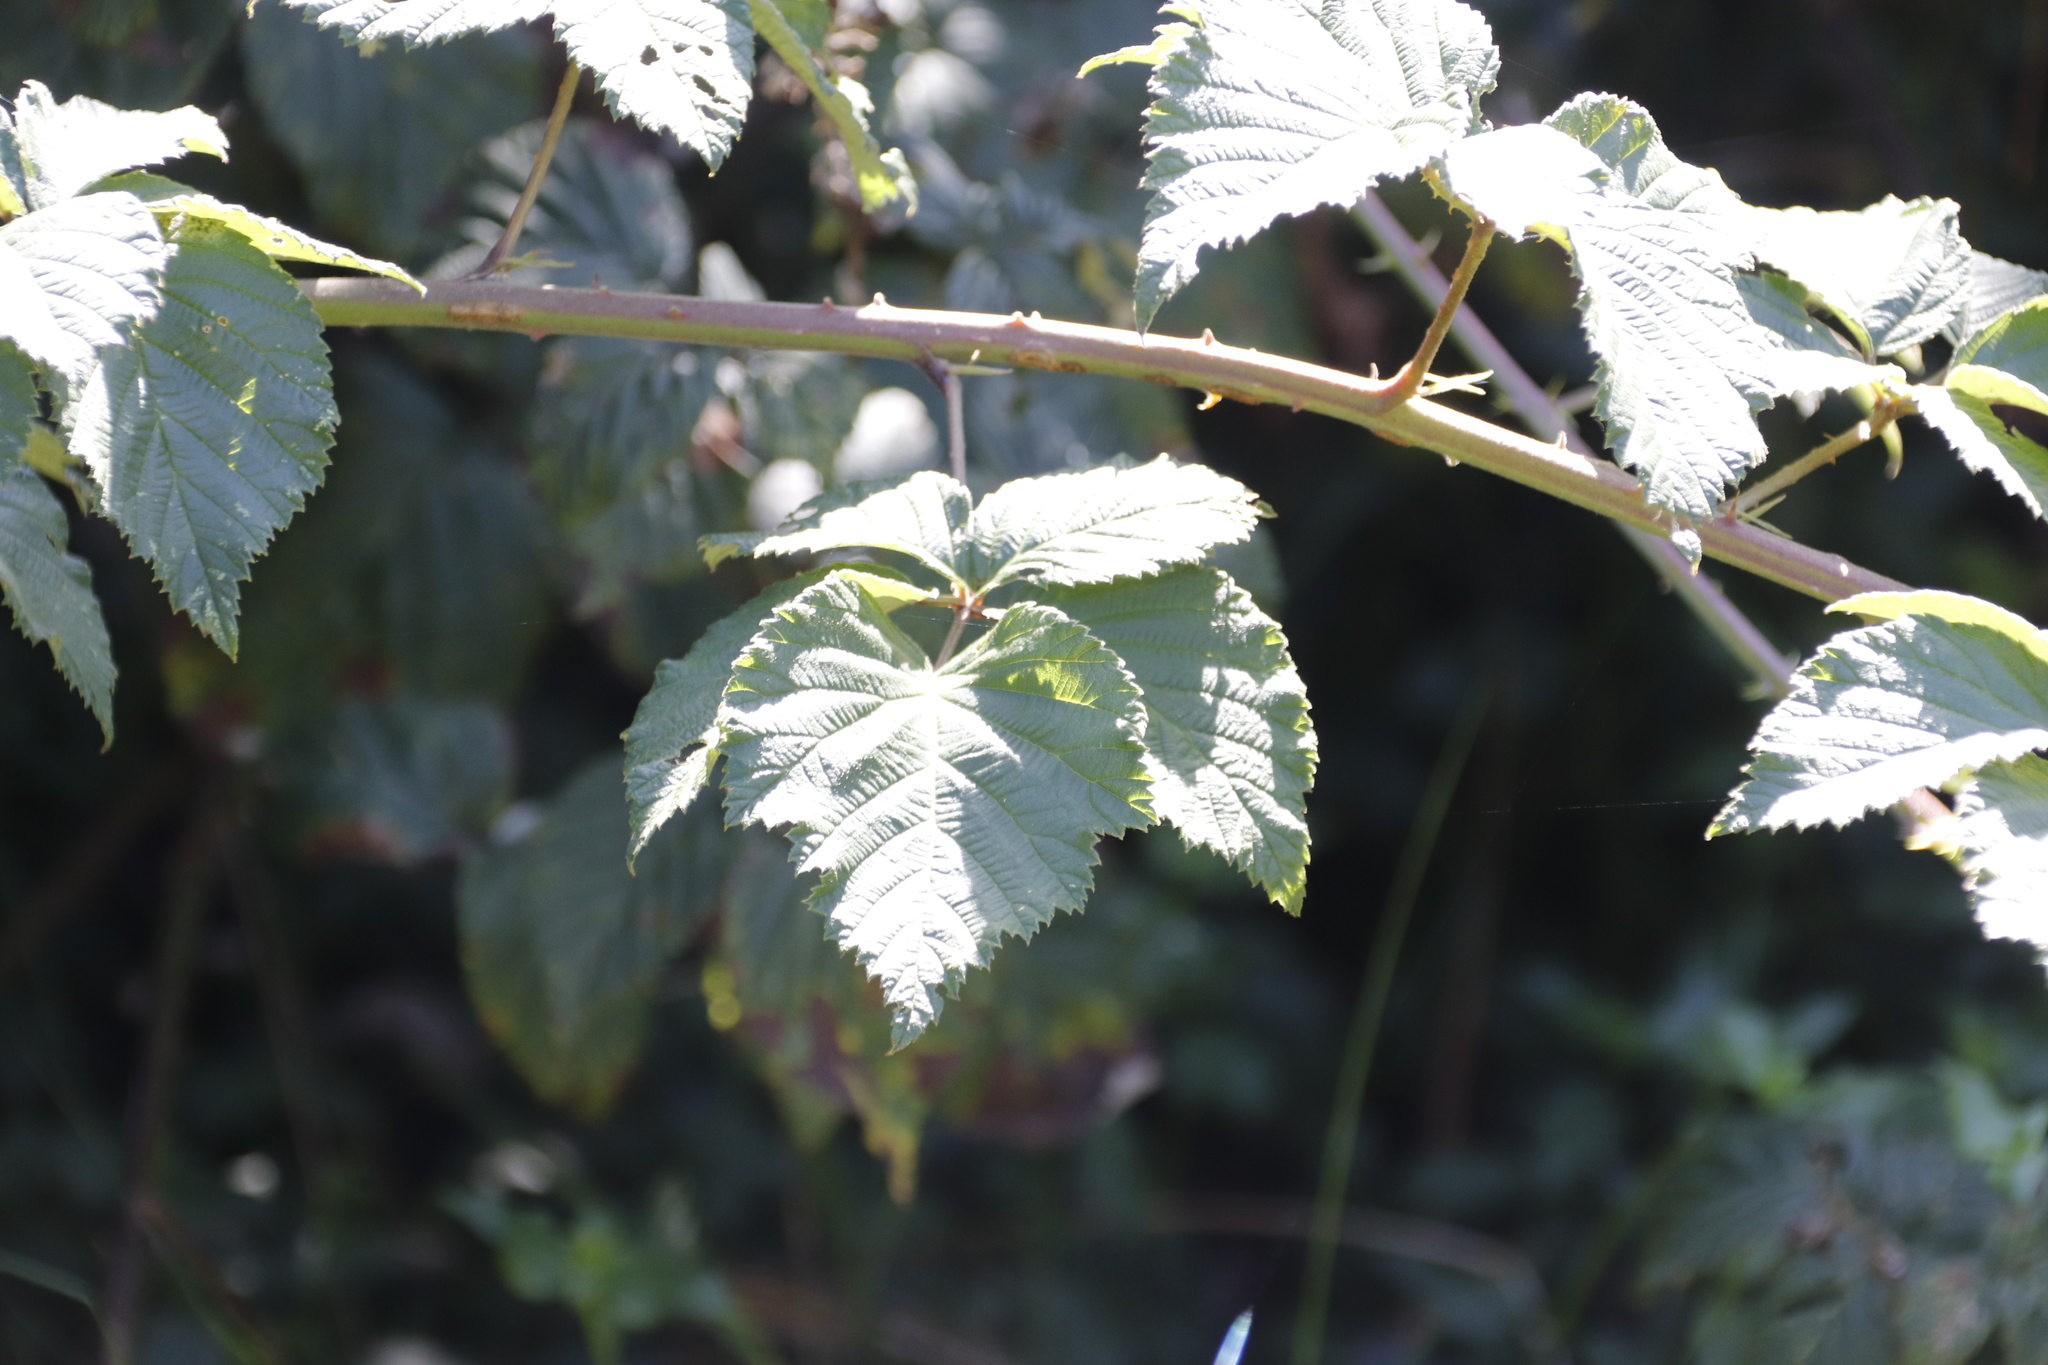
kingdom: Plantae
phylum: Tracheophyta
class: Magnoliopsida
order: Rosales
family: Rosaceae
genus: Rubus
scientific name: Rubus
